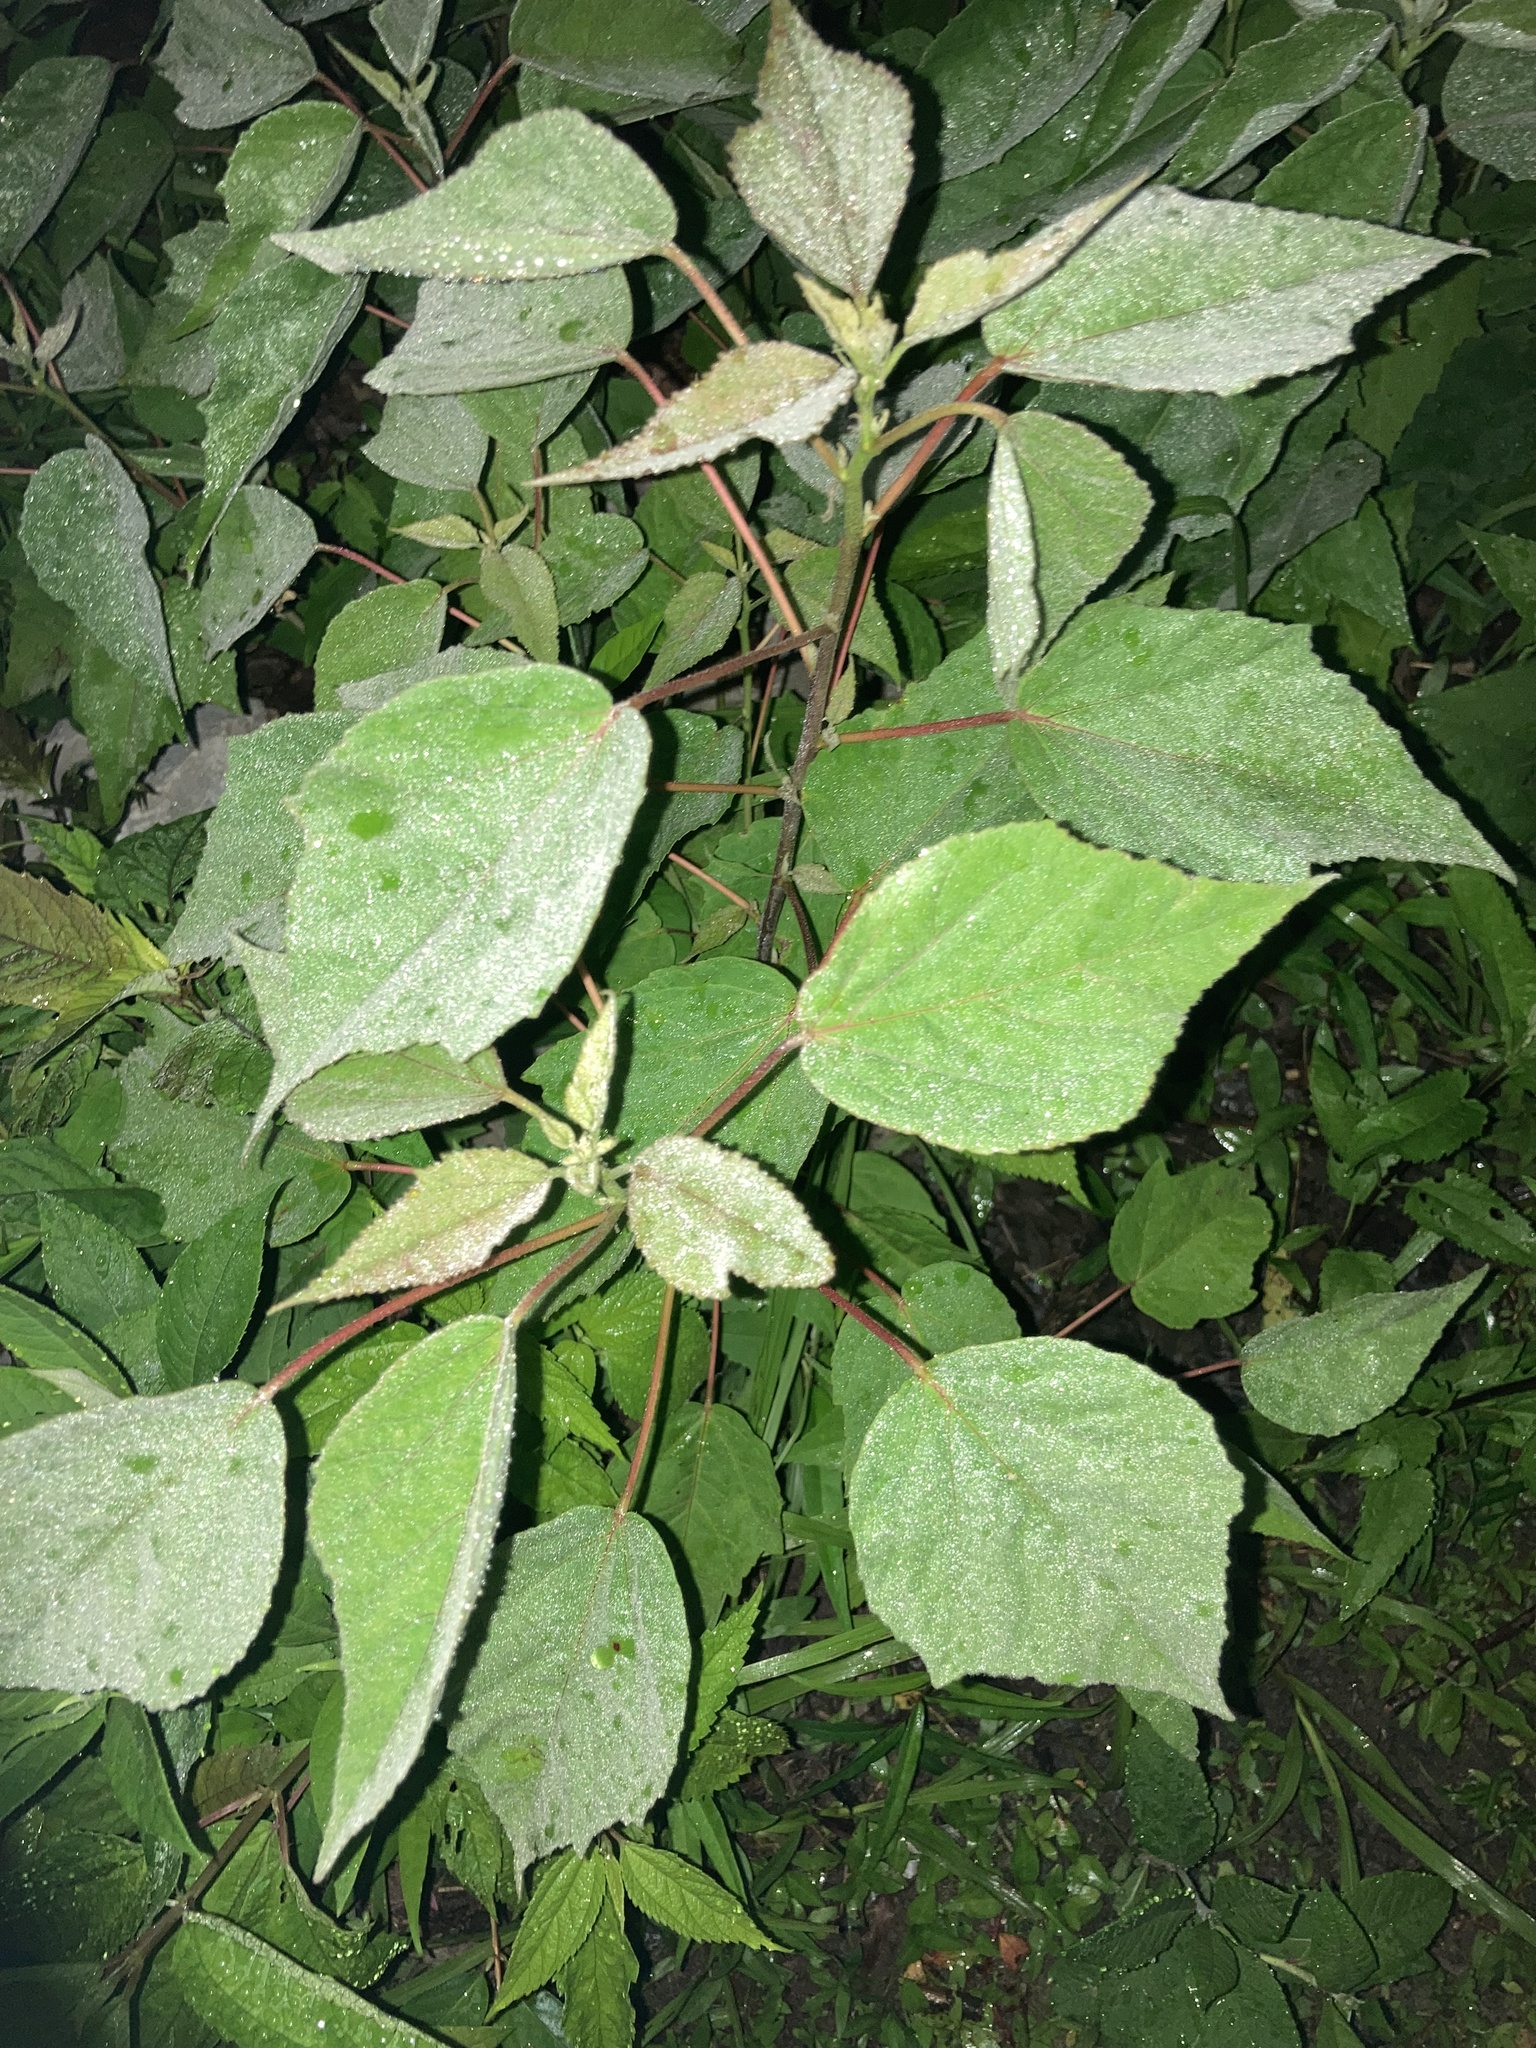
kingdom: Plantae
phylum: Tracheophyta
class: Magnoliopsida
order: Malvales
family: Malvaceae
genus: Hibiscus
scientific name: Hibiscus moscheutos
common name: Common rose-mallow
